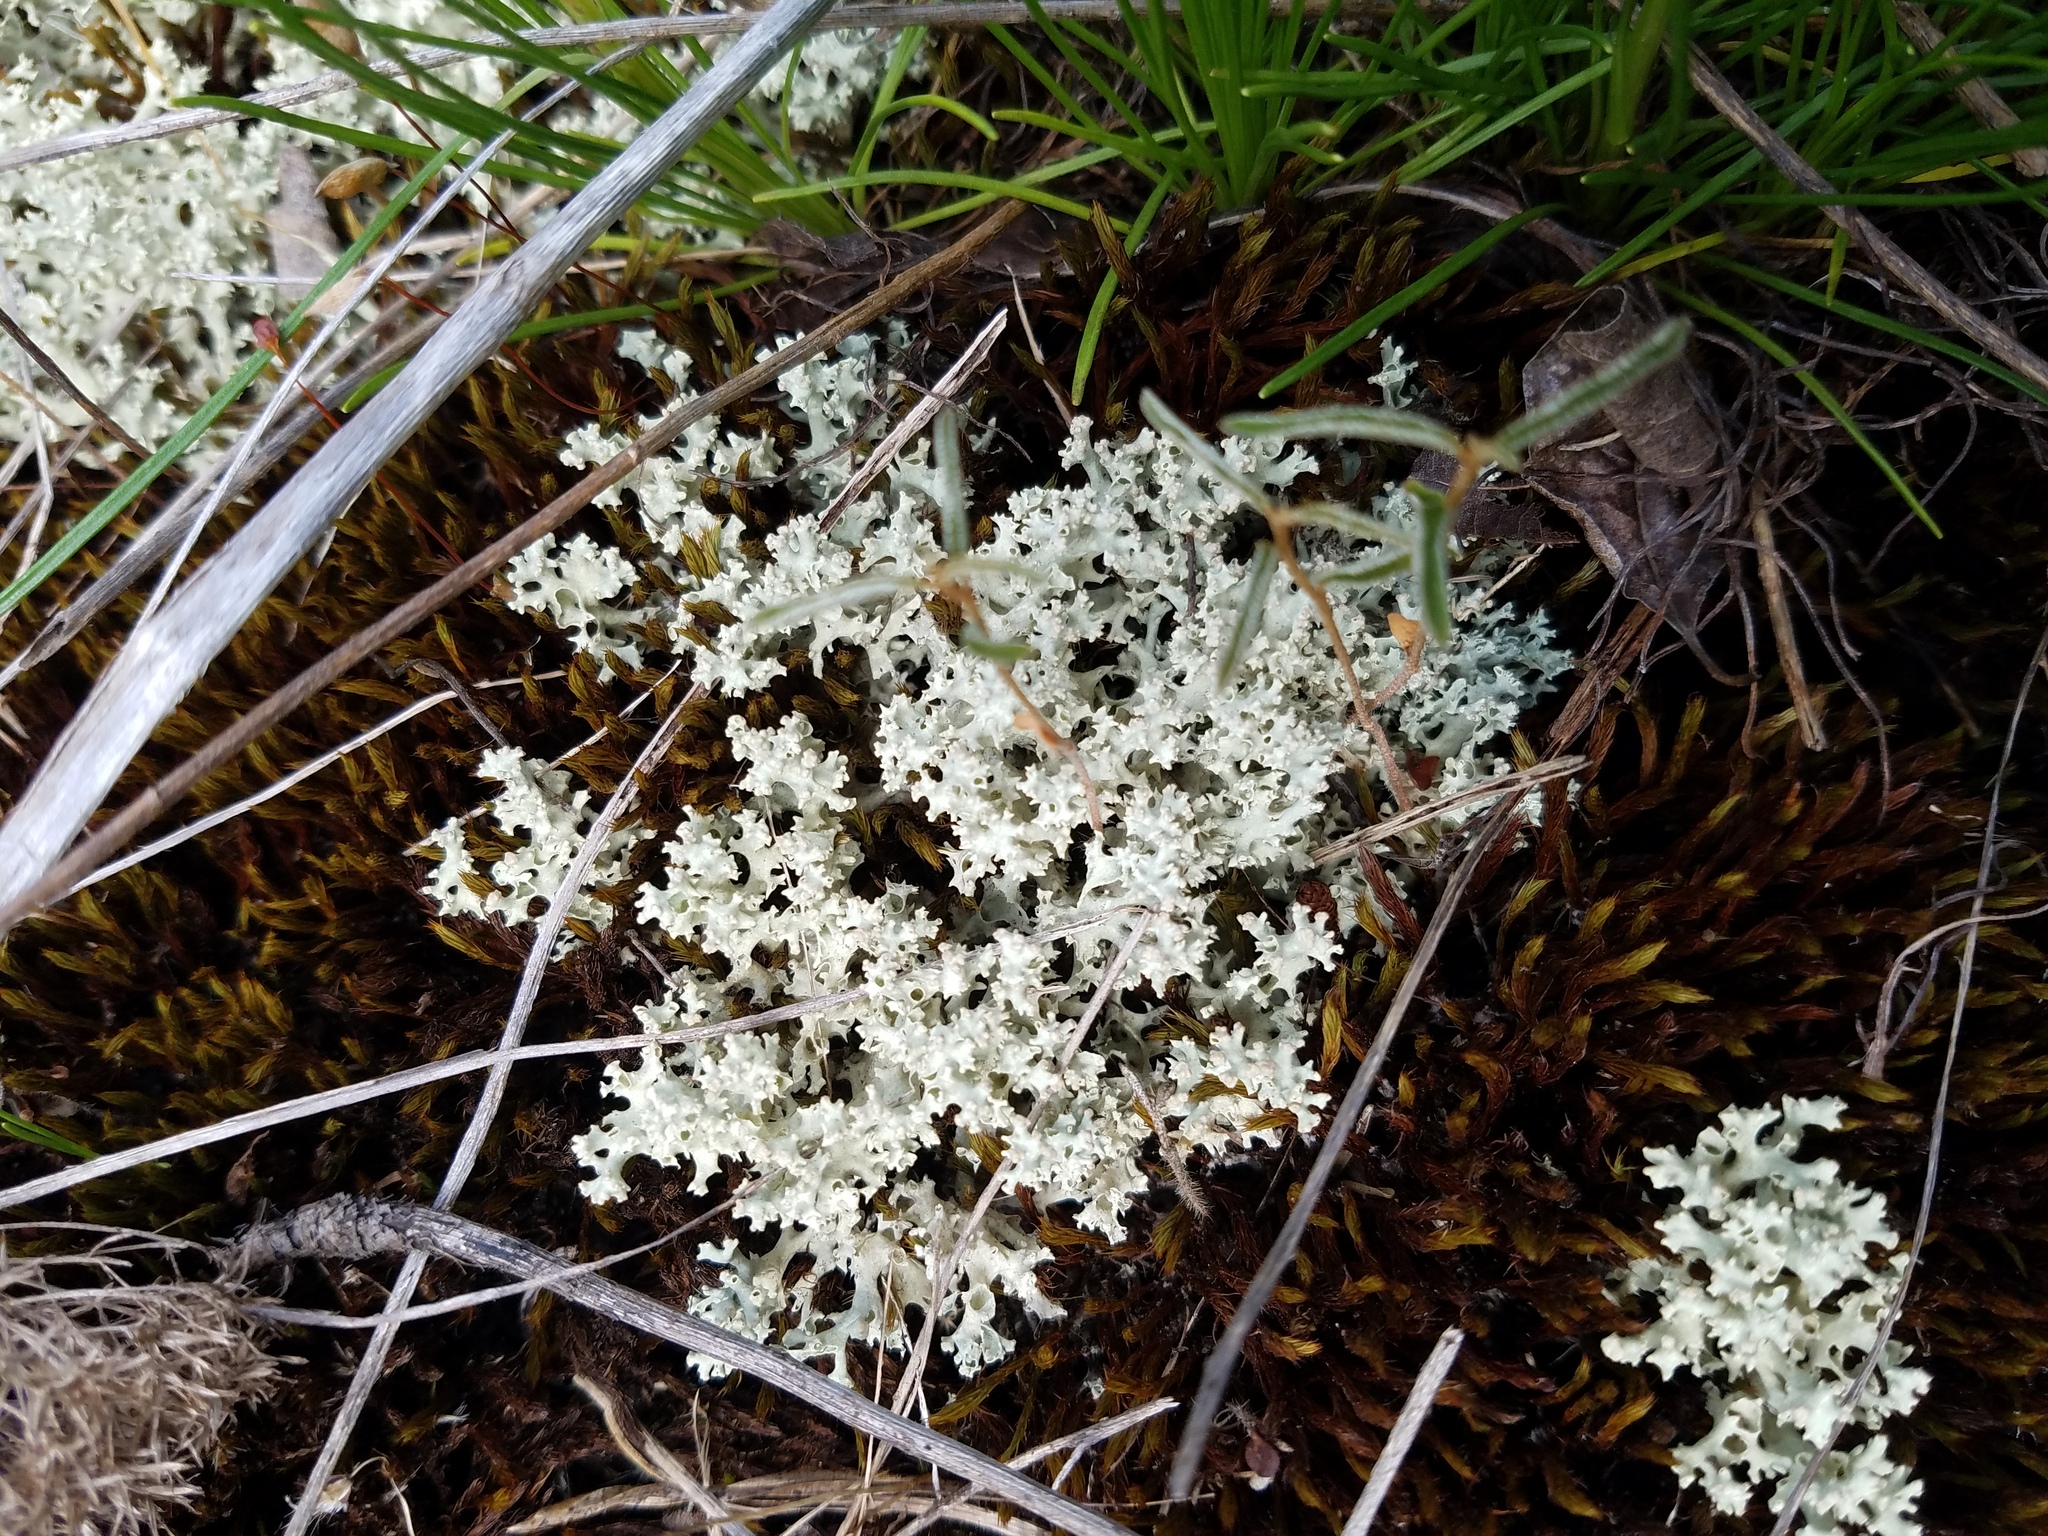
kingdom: Fungi
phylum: Ascomycota
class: Lecanoromycetes
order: Lecanorales
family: Cladoniaceae
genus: Cladonia
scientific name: Cladonia caroliniana
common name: Granite thorn
